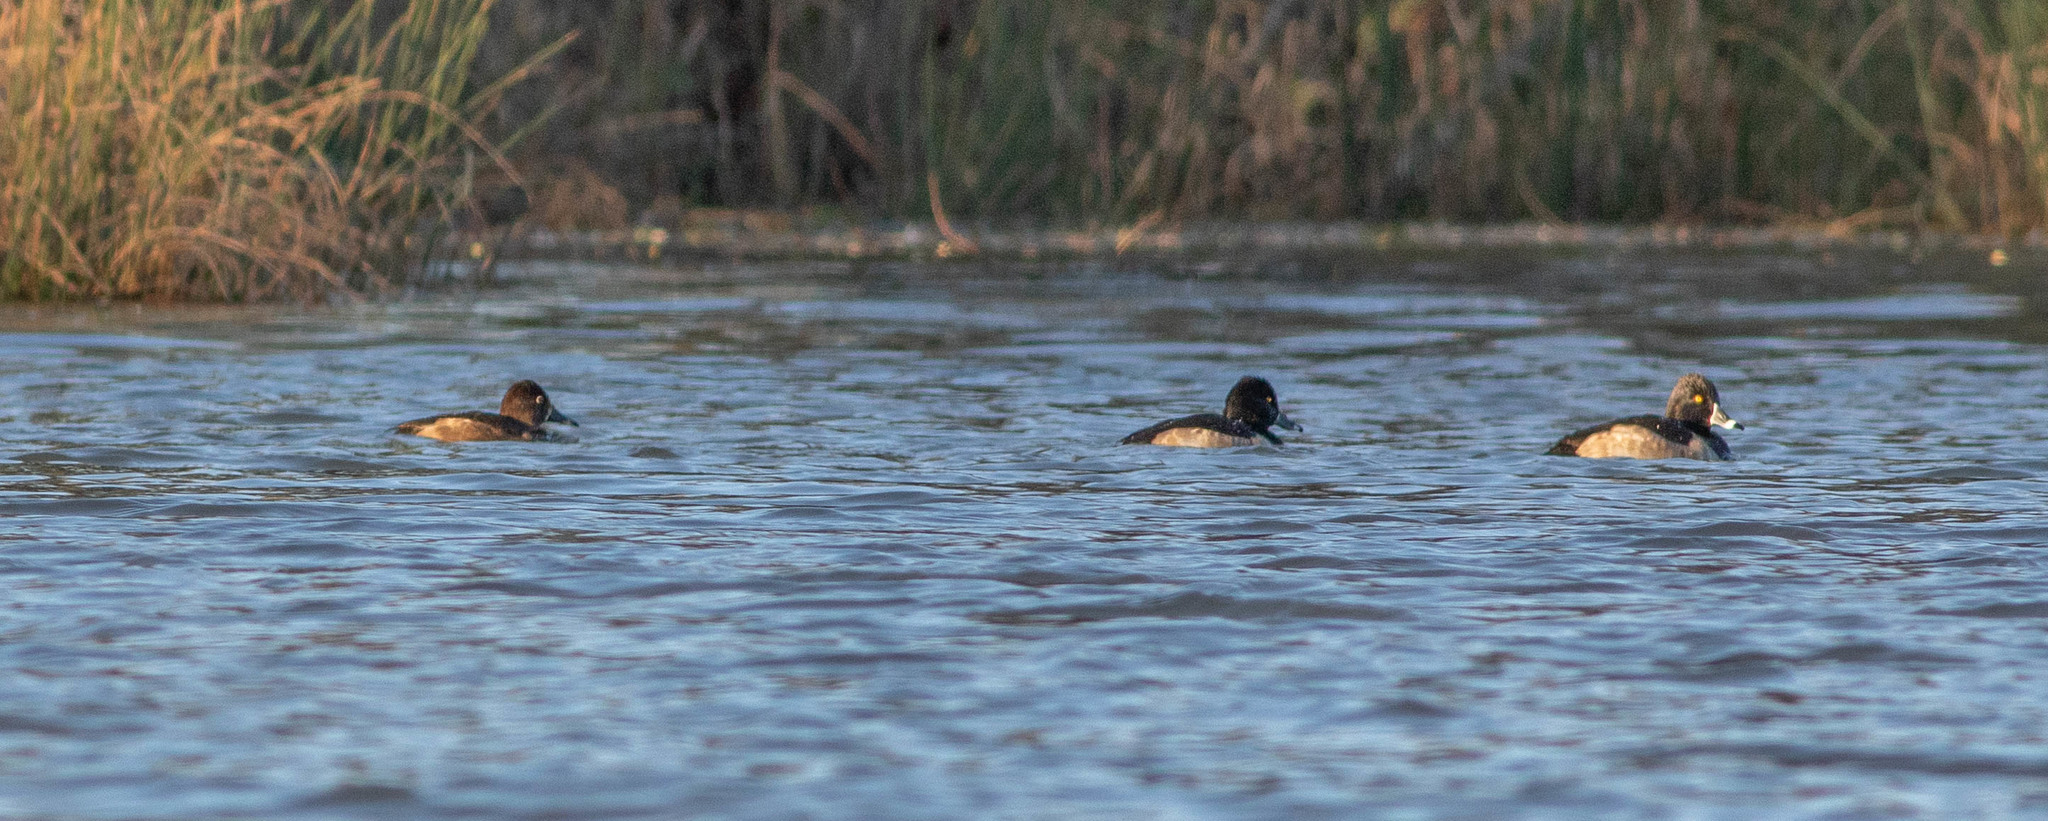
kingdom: Animalia
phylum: Chordata
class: Aves
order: Anseriformes
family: Anatidae
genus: Aythya
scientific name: Aythya collaris
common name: Ring-necked duck
